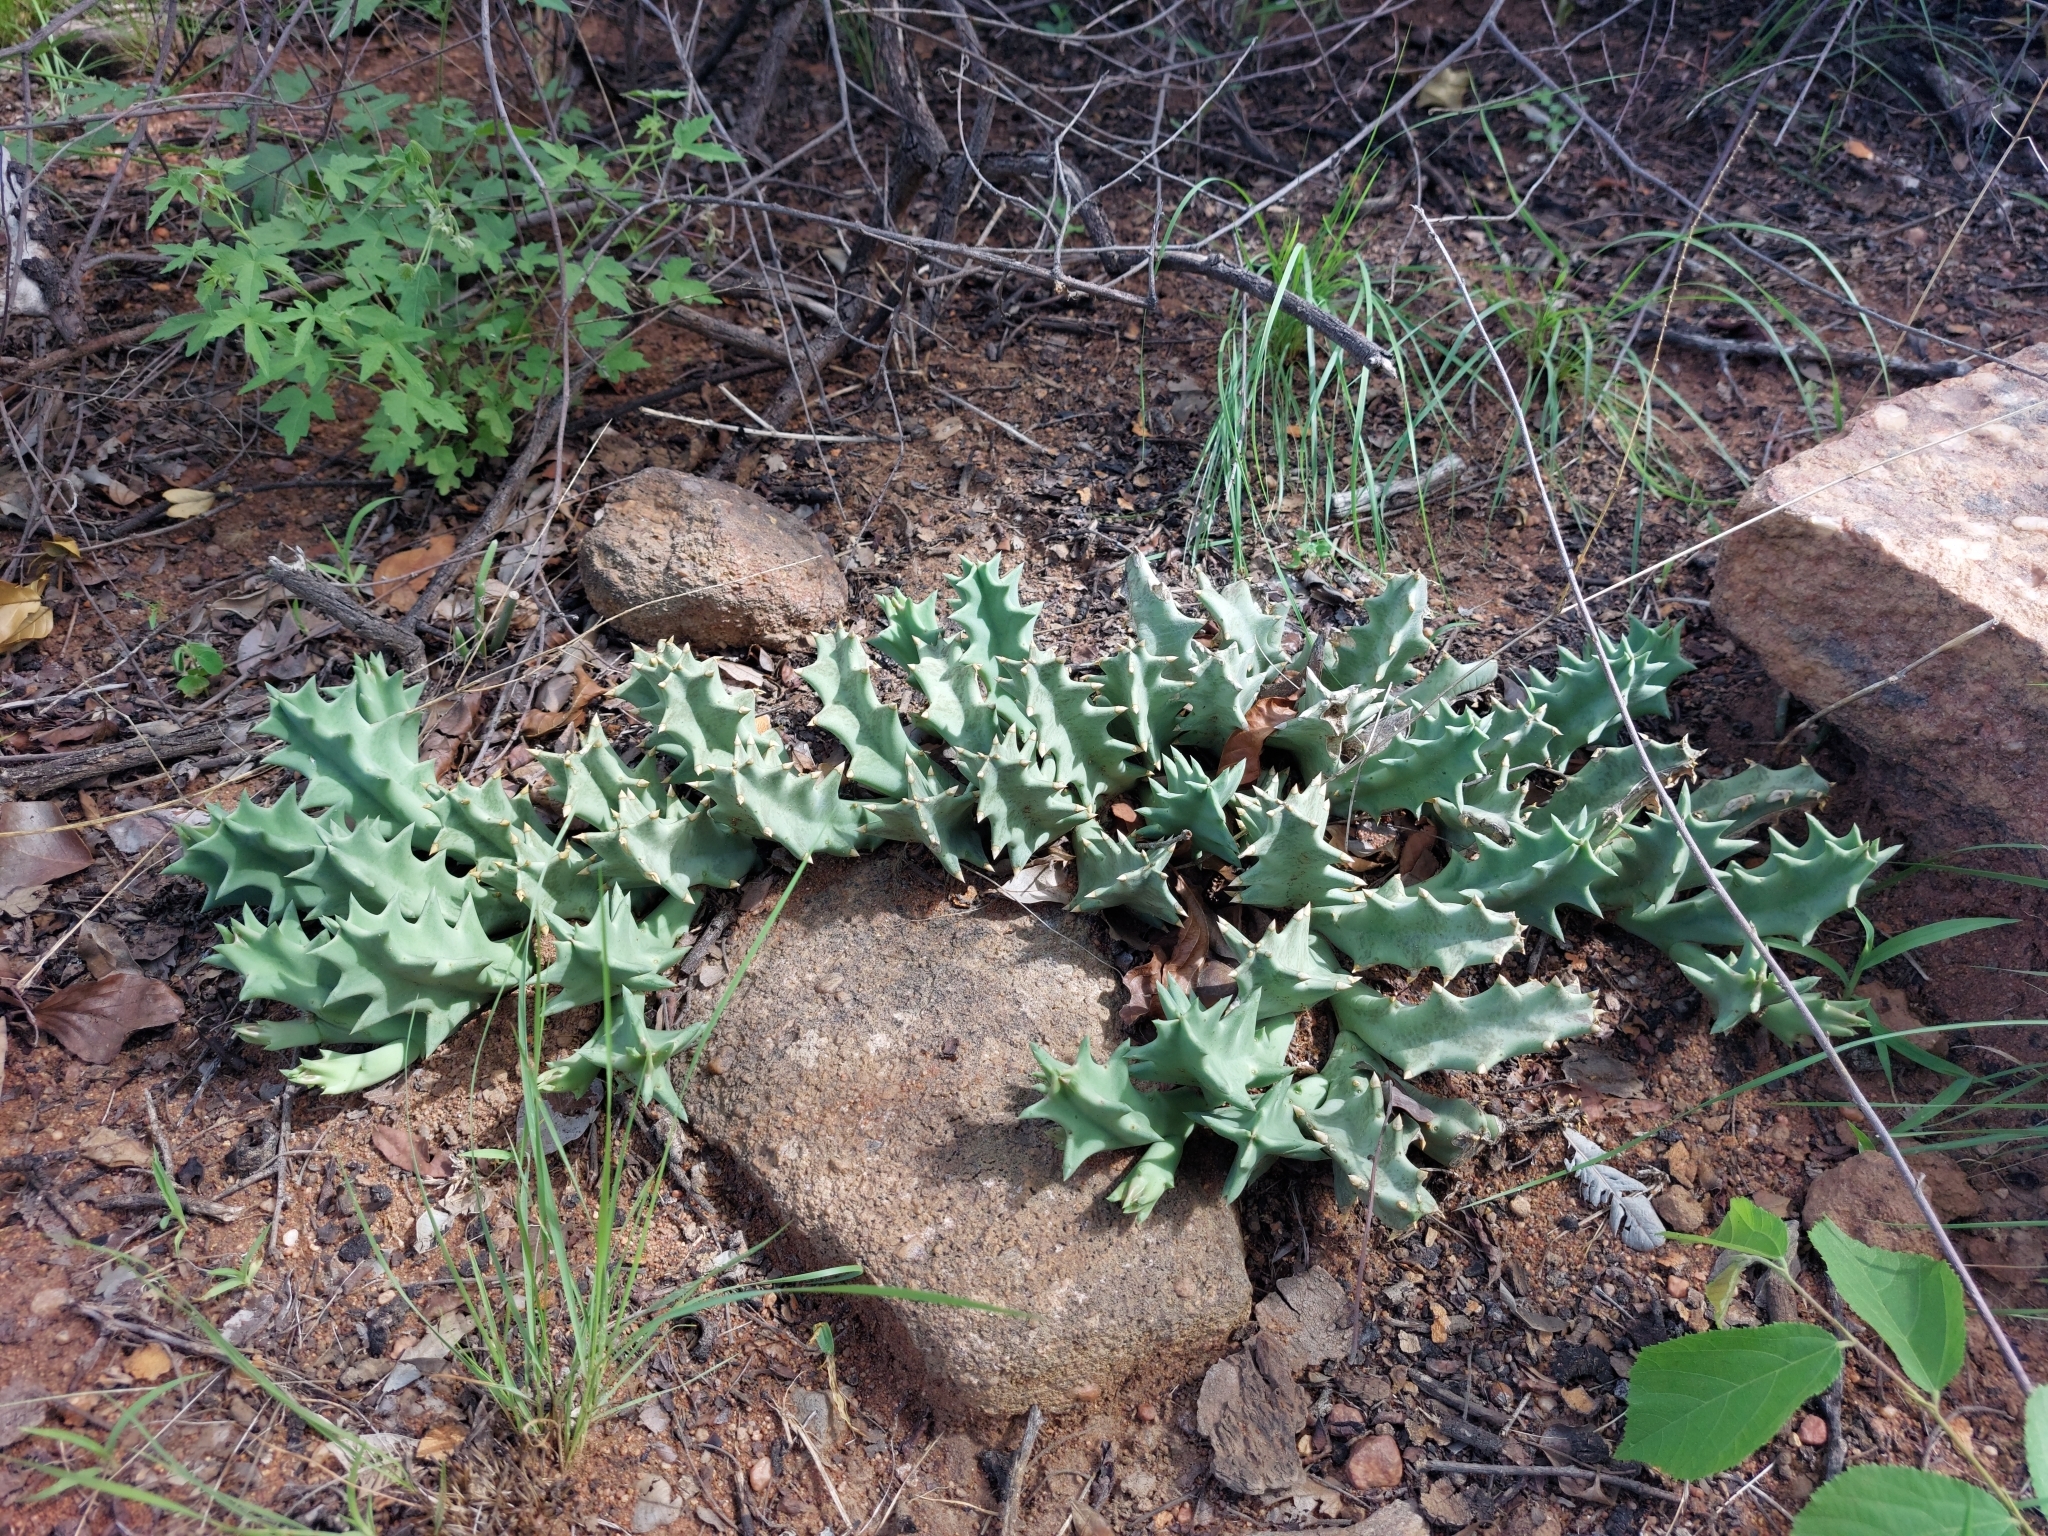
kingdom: Plantae
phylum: Tracheophyta
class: Magnoliopsida
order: Gentianales
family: Apocynaceae
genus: Ceropegia
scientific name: Ceropegia melanantha
